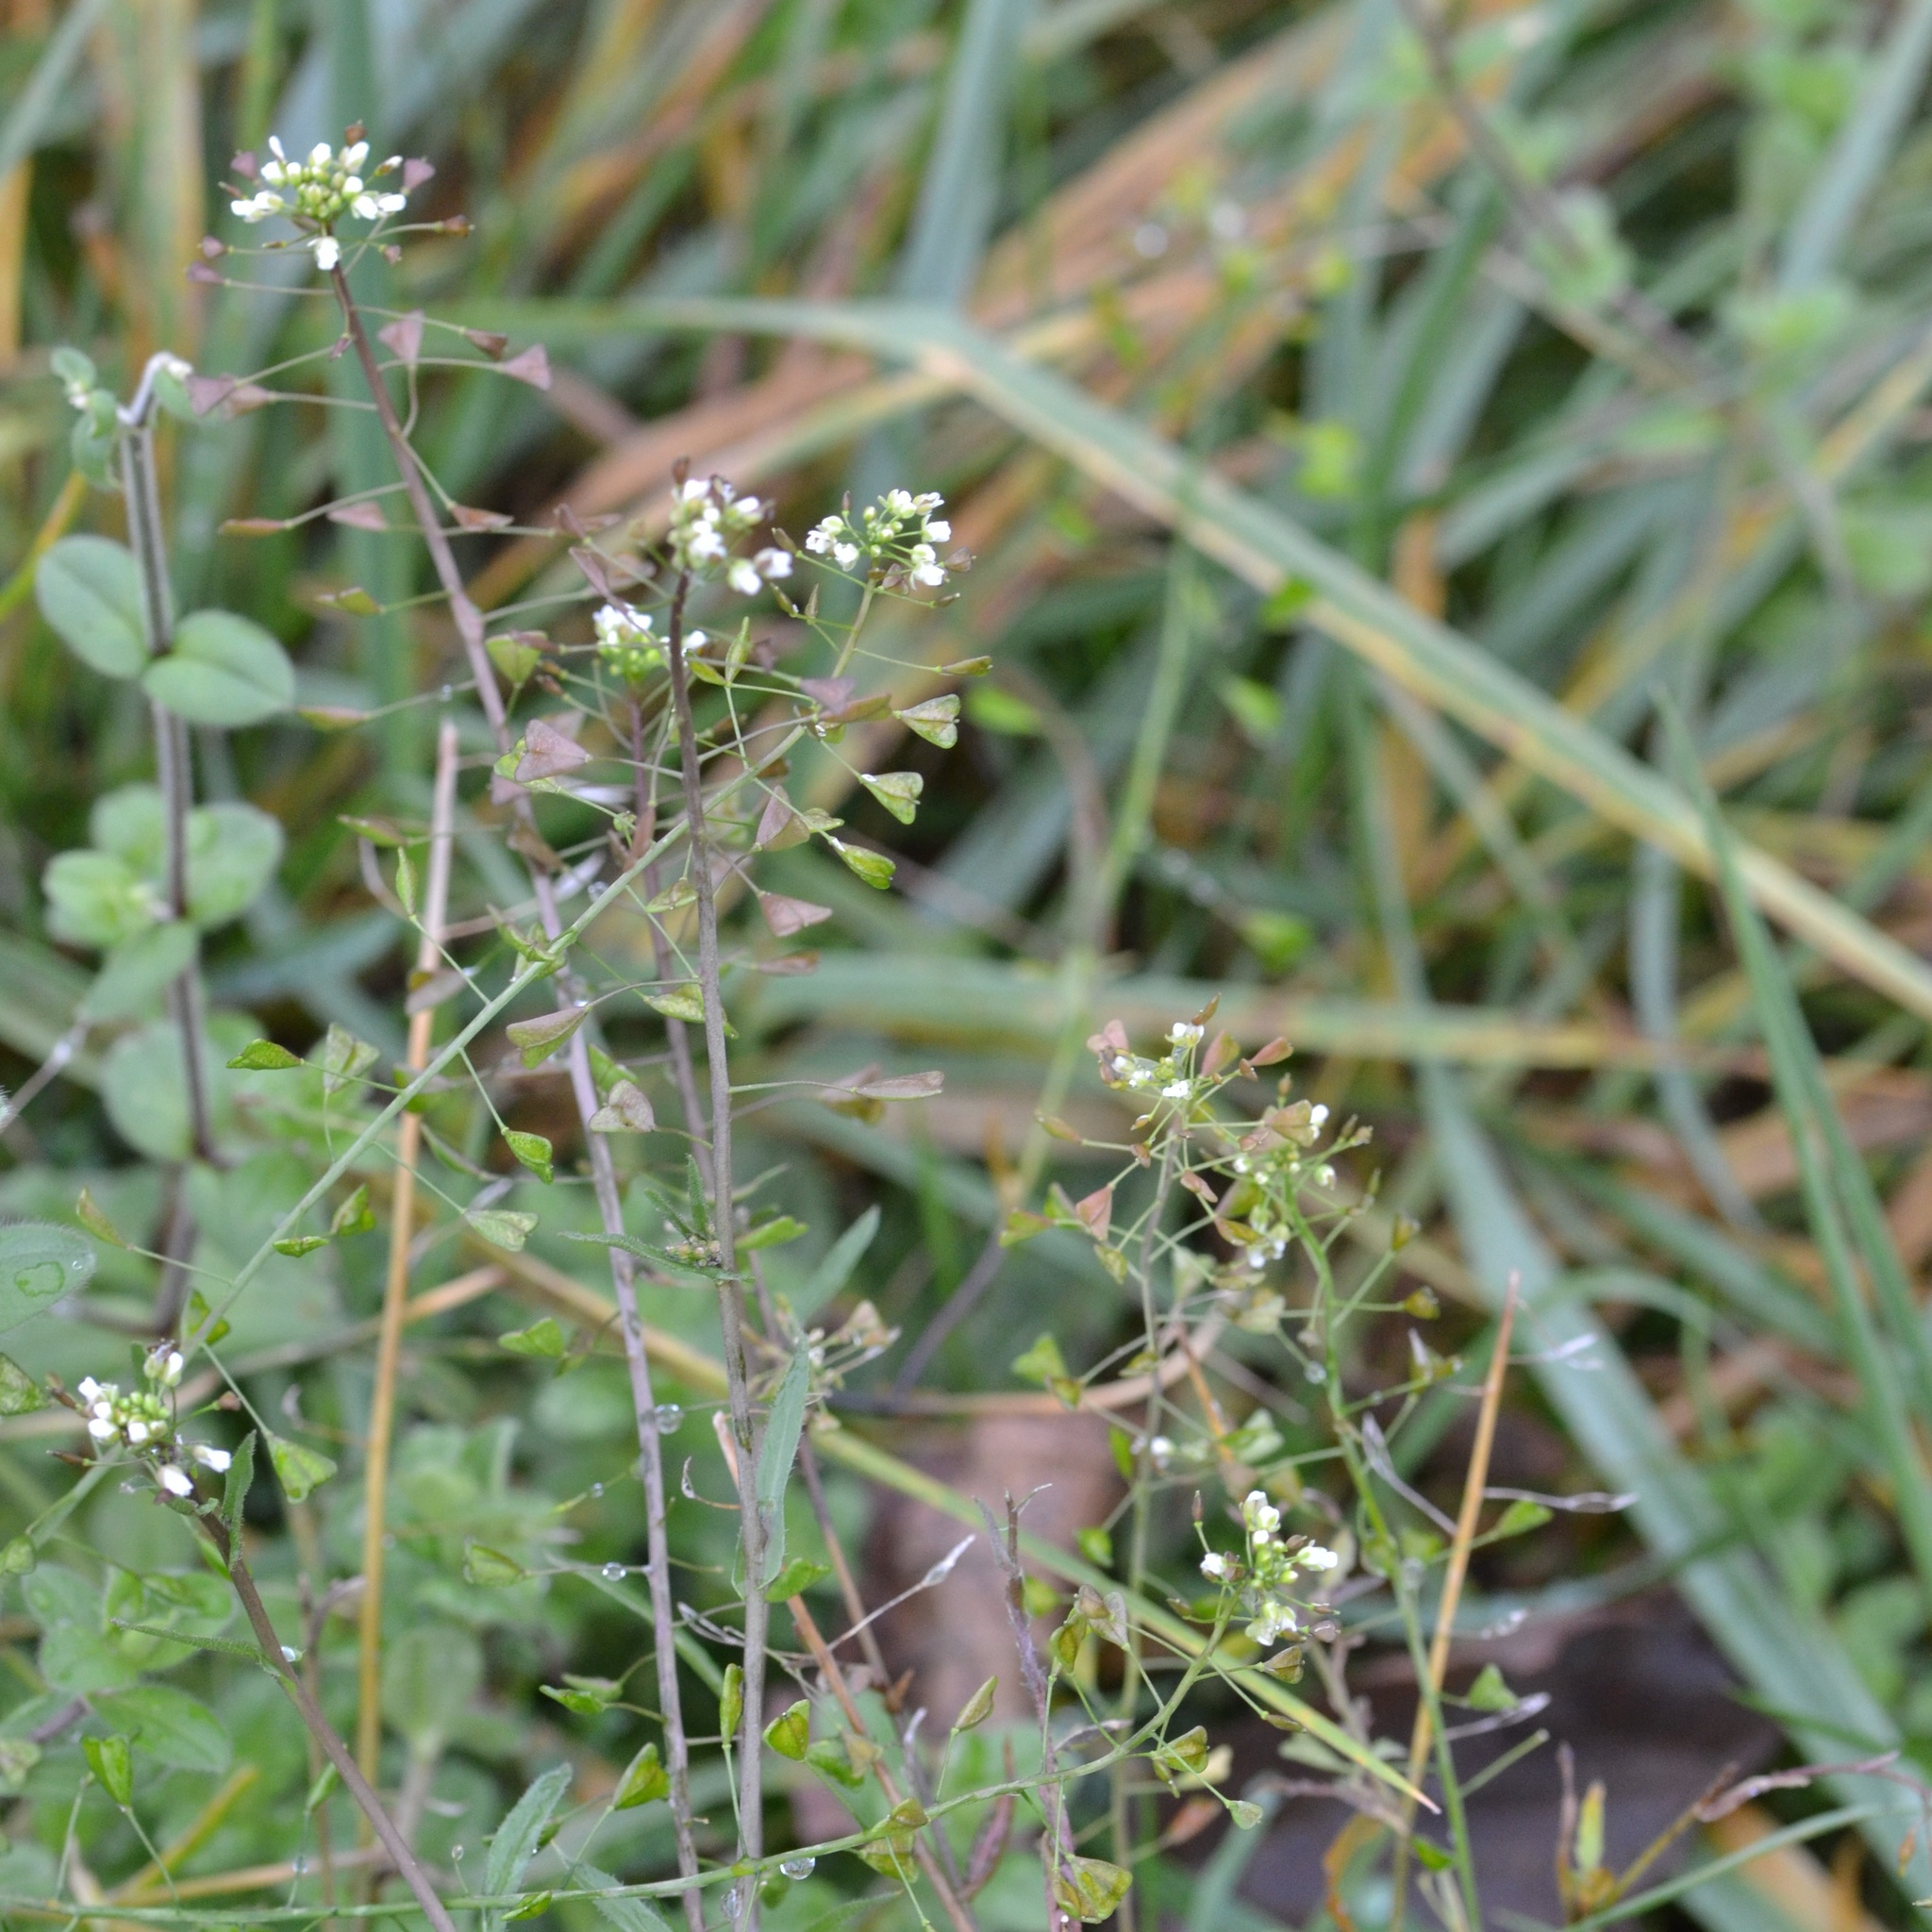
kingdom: Plantae
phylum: Tracheophyta
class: Magnoliopsida
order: Brassicales
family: Brassicaceae
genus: Capsella
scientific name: Capsella bursa-pastoris
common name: Shepherd's purse
